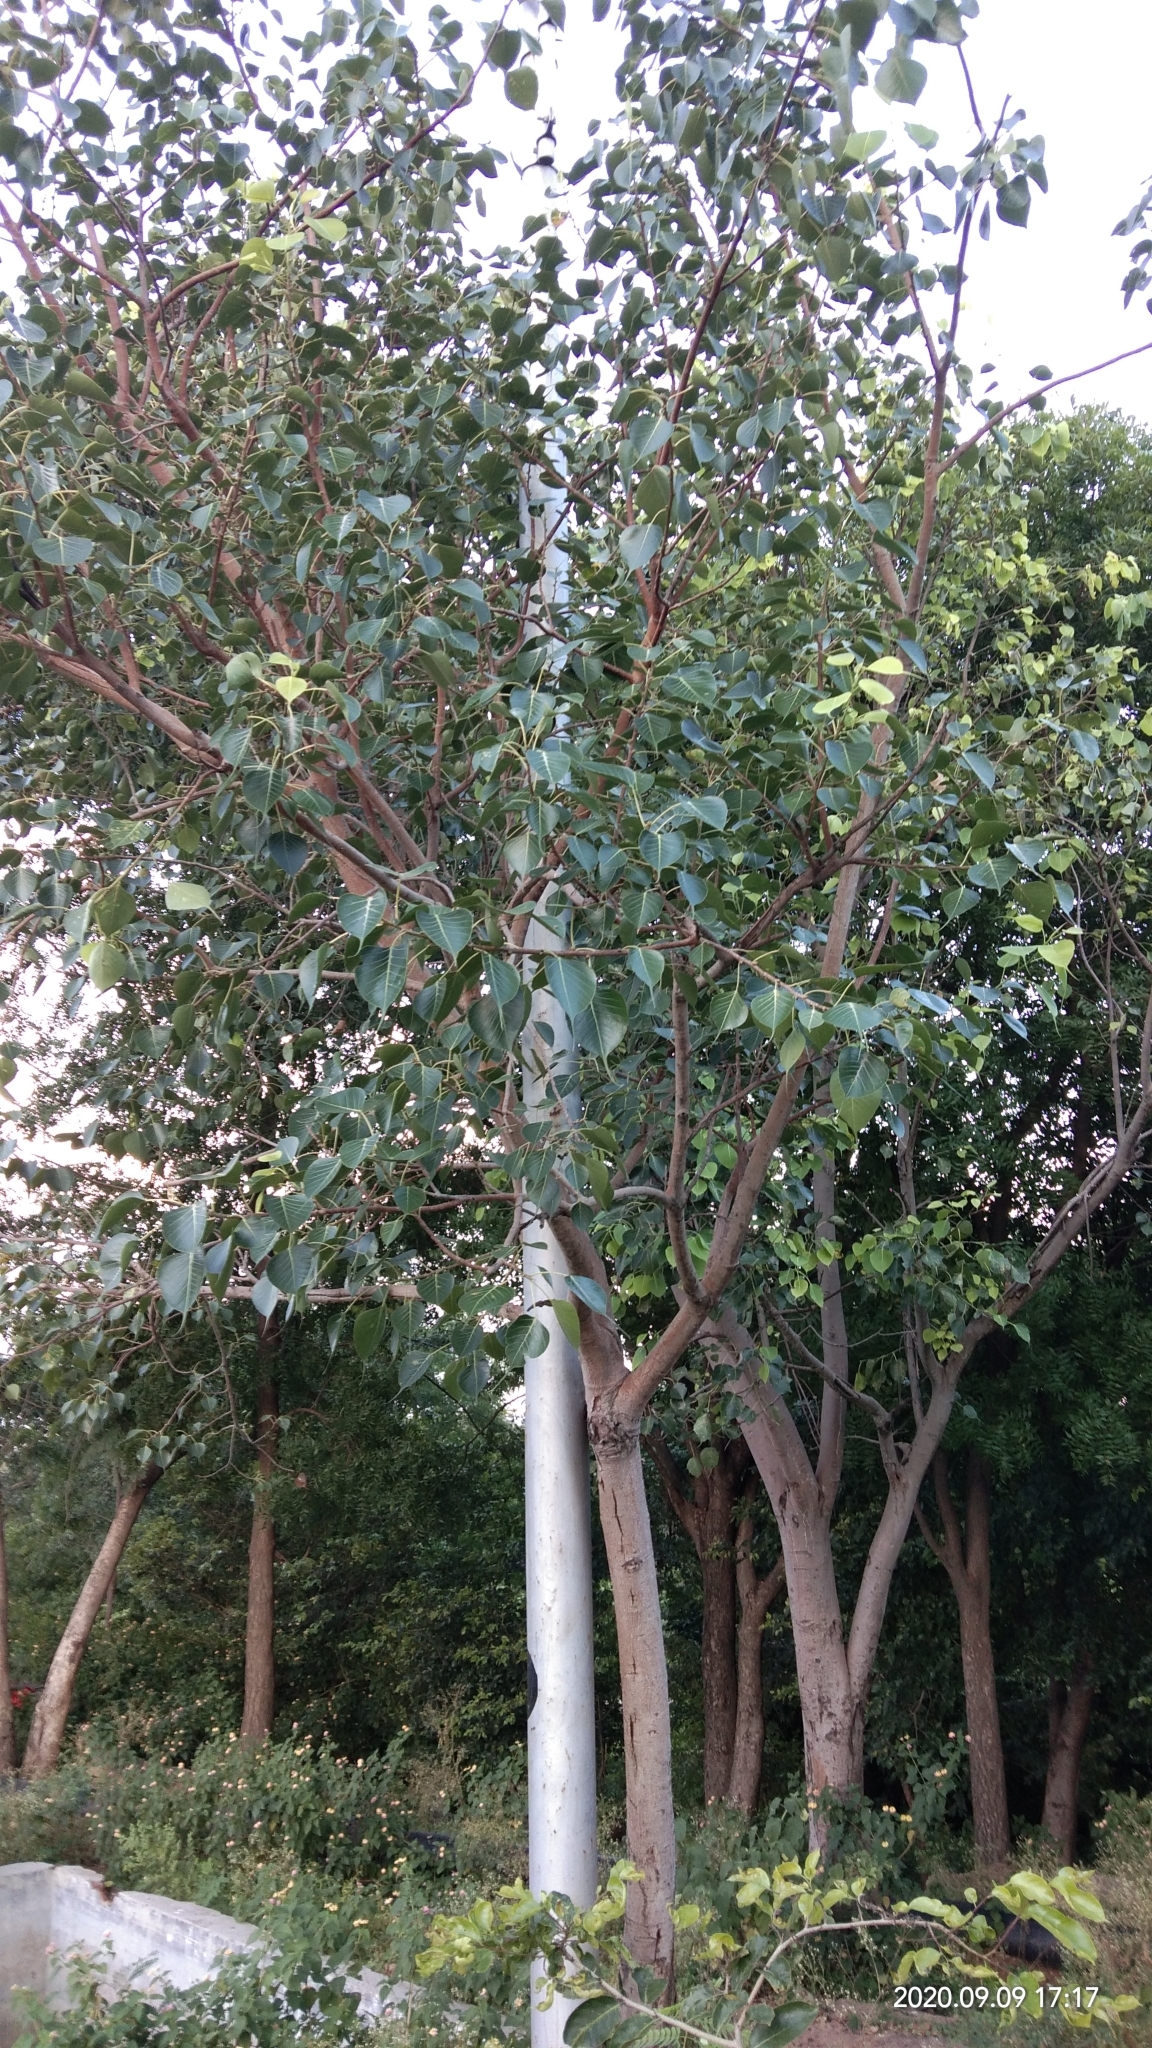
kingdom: Plantae
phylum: Tracheophyta
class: Magnoliopsida
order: Rosales
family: Moraceae
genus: Ficus
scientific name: Ficus religiosa
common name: Bodhi tree
